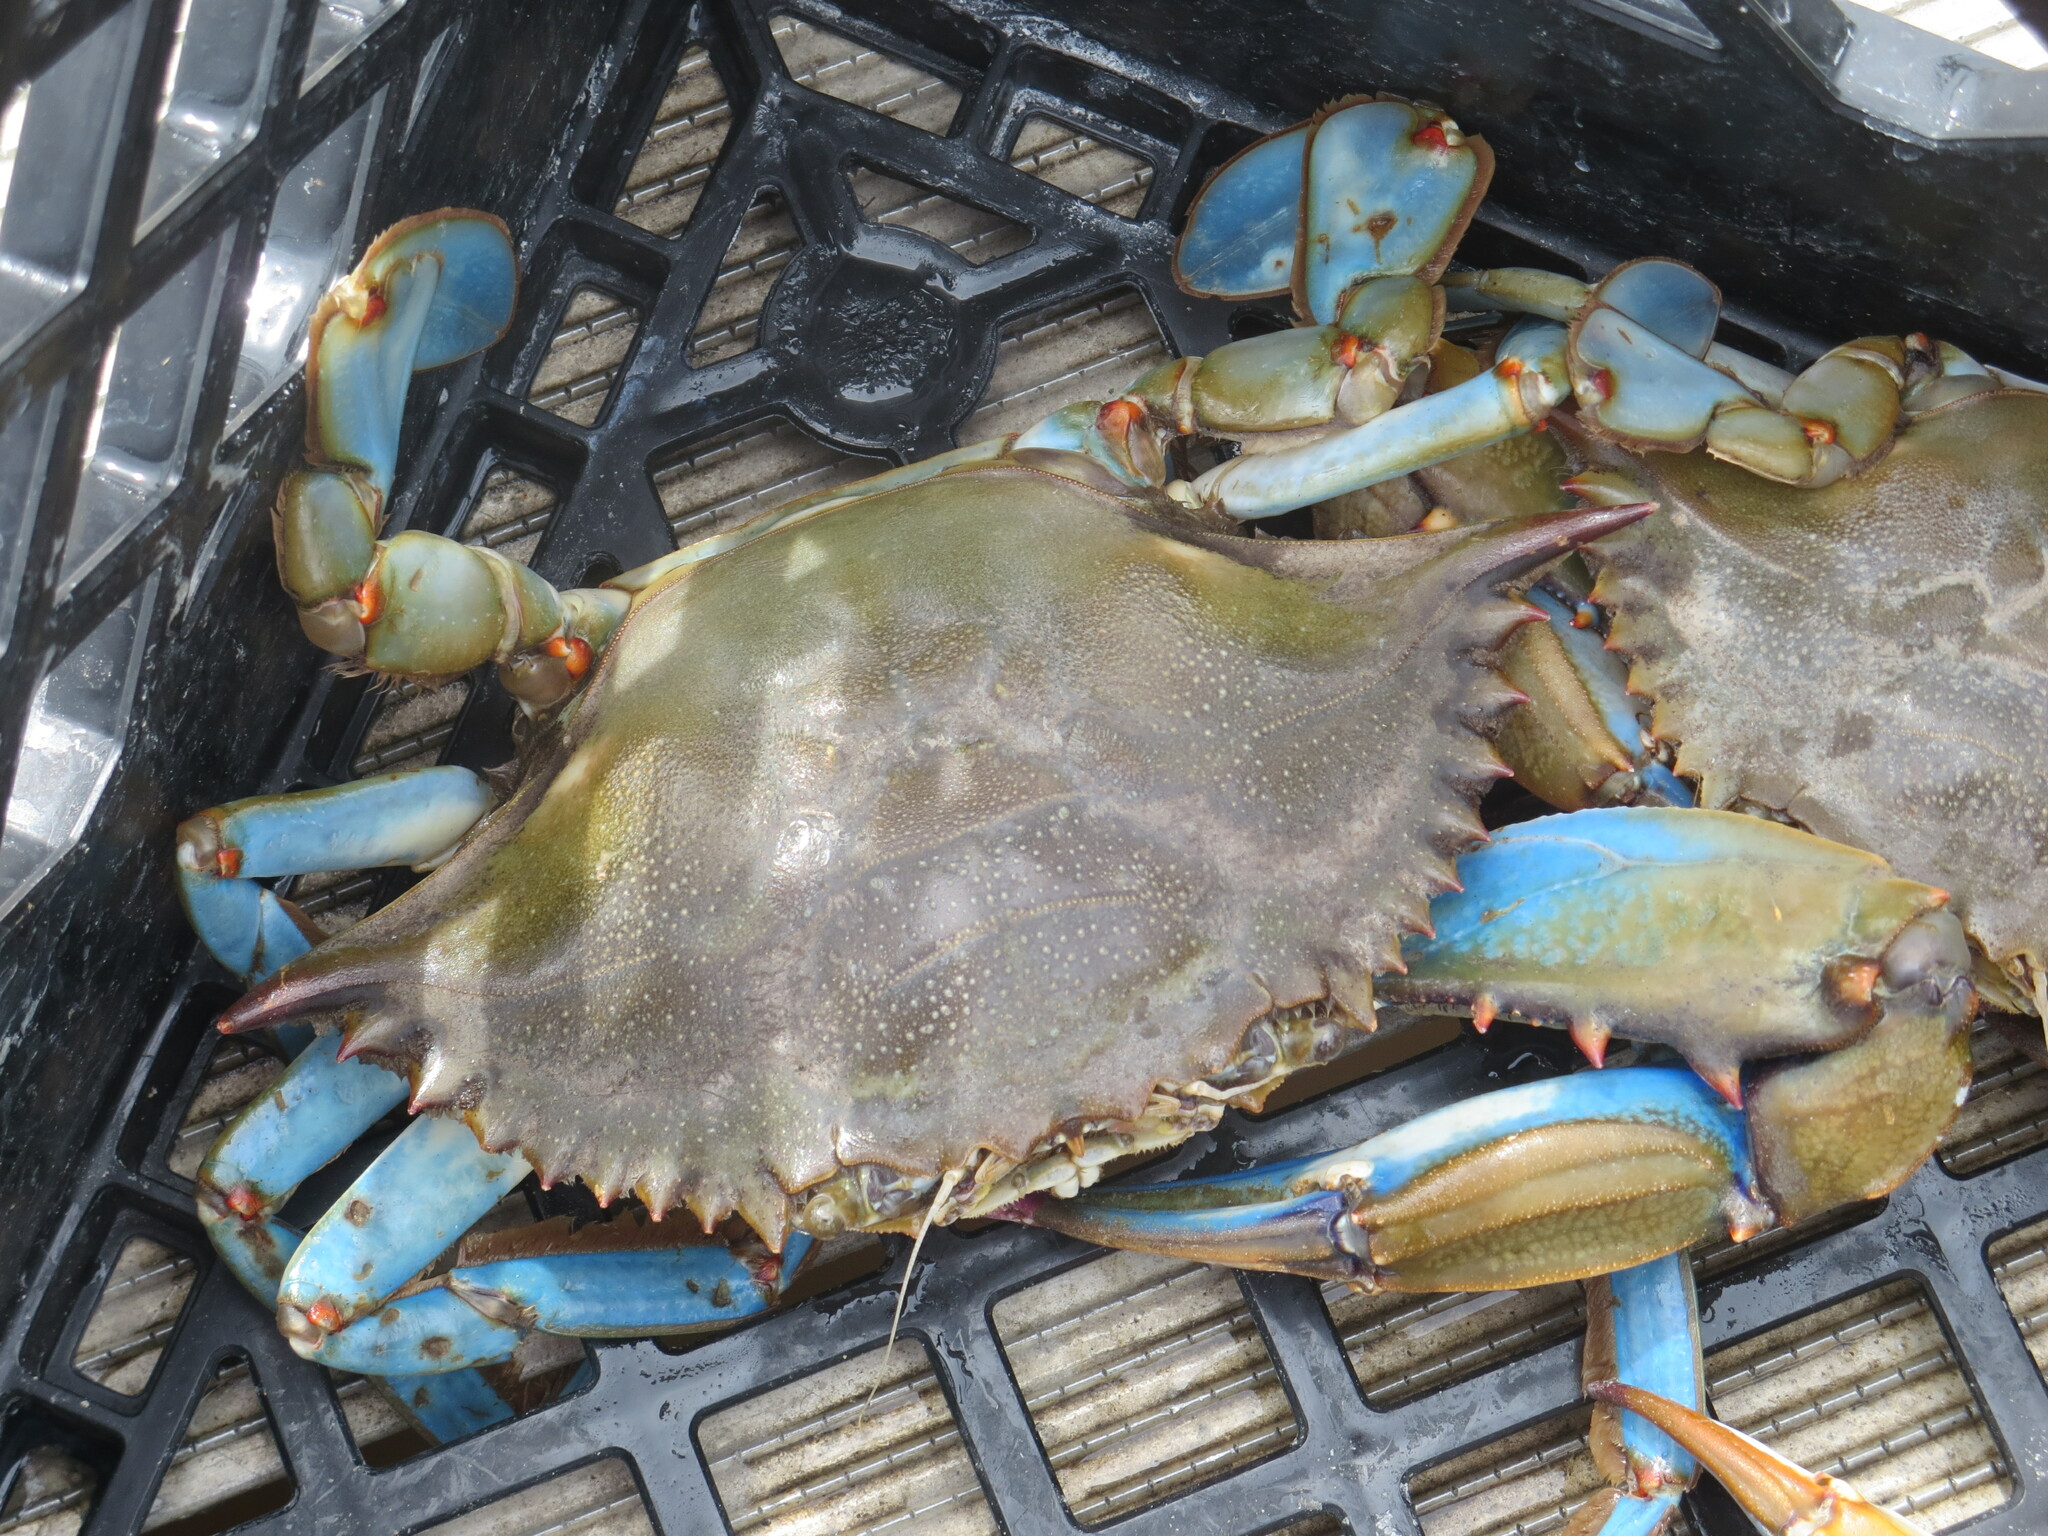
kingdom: Animalia
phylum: Arthropoda
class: Malacostraca
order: Decapoda
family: Portunidae
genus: Callinectes
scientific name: Callinectes sapidus
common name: Blue crab
